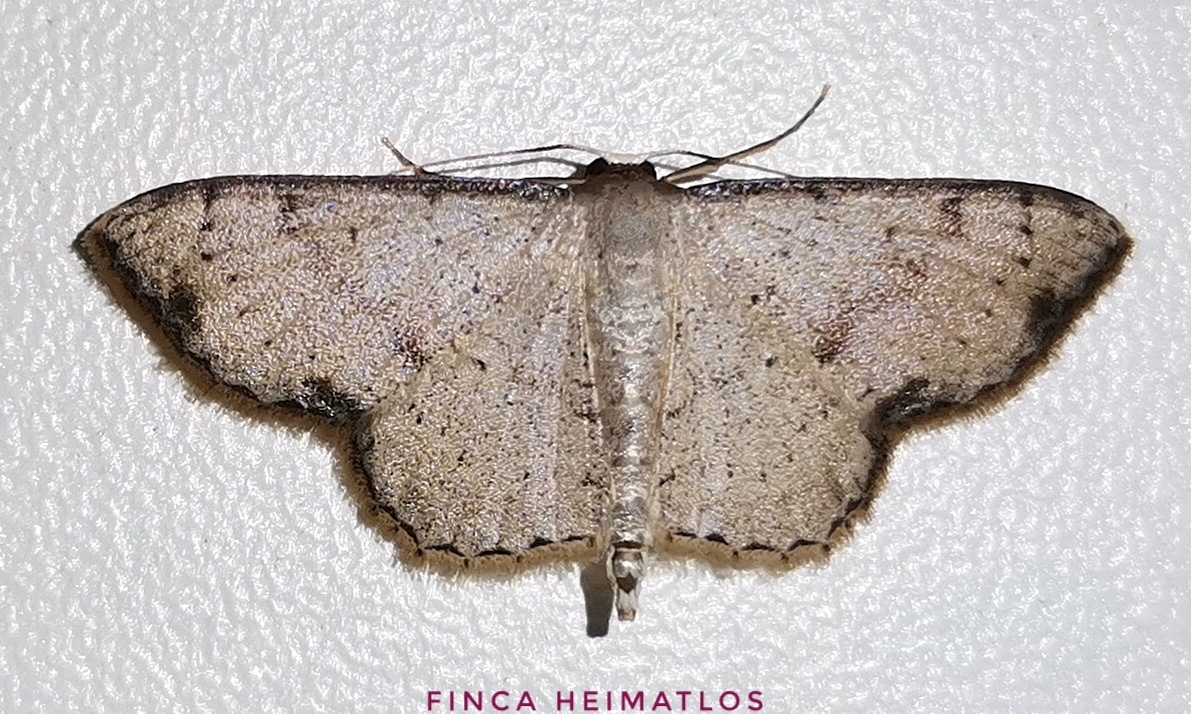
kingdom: Animalia
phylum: Arthropoda
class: Insecta
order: Lepidoptera
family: Geometridae
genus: Ptychamalia
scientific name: Ptychamalia perlata
